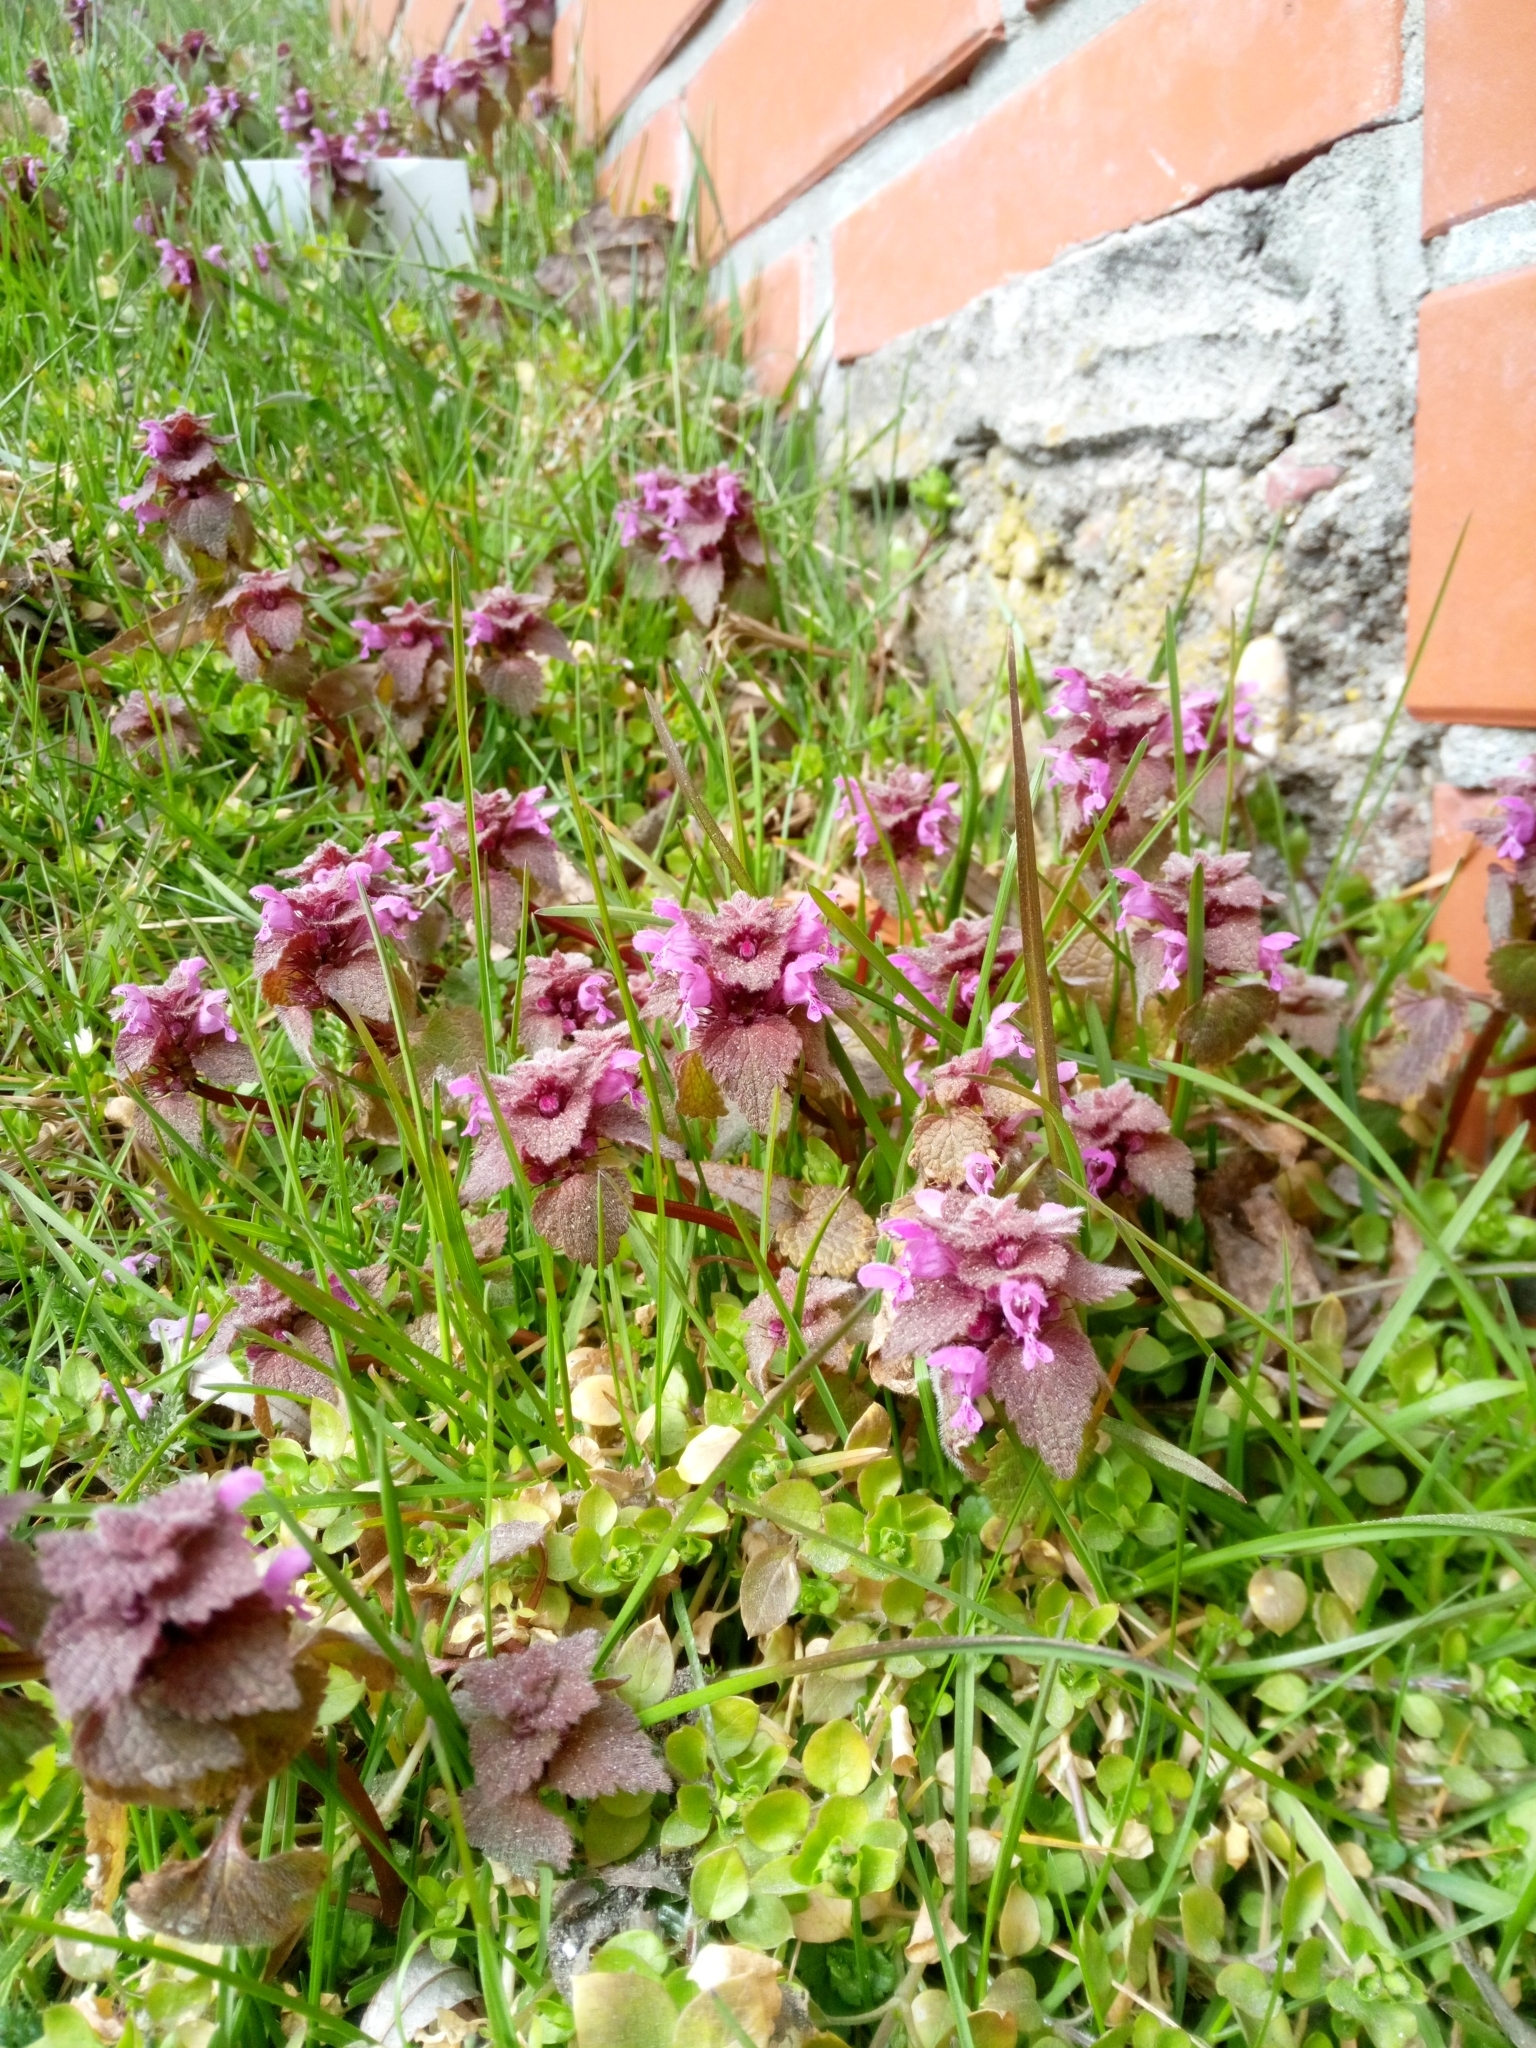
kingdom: Plantae
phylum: Tracheophyta
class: Magnoliopsida
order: Lamiales
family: Lamiaceae
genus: Lamium
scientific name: Lamium purpureum
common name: Red dead-nettle
